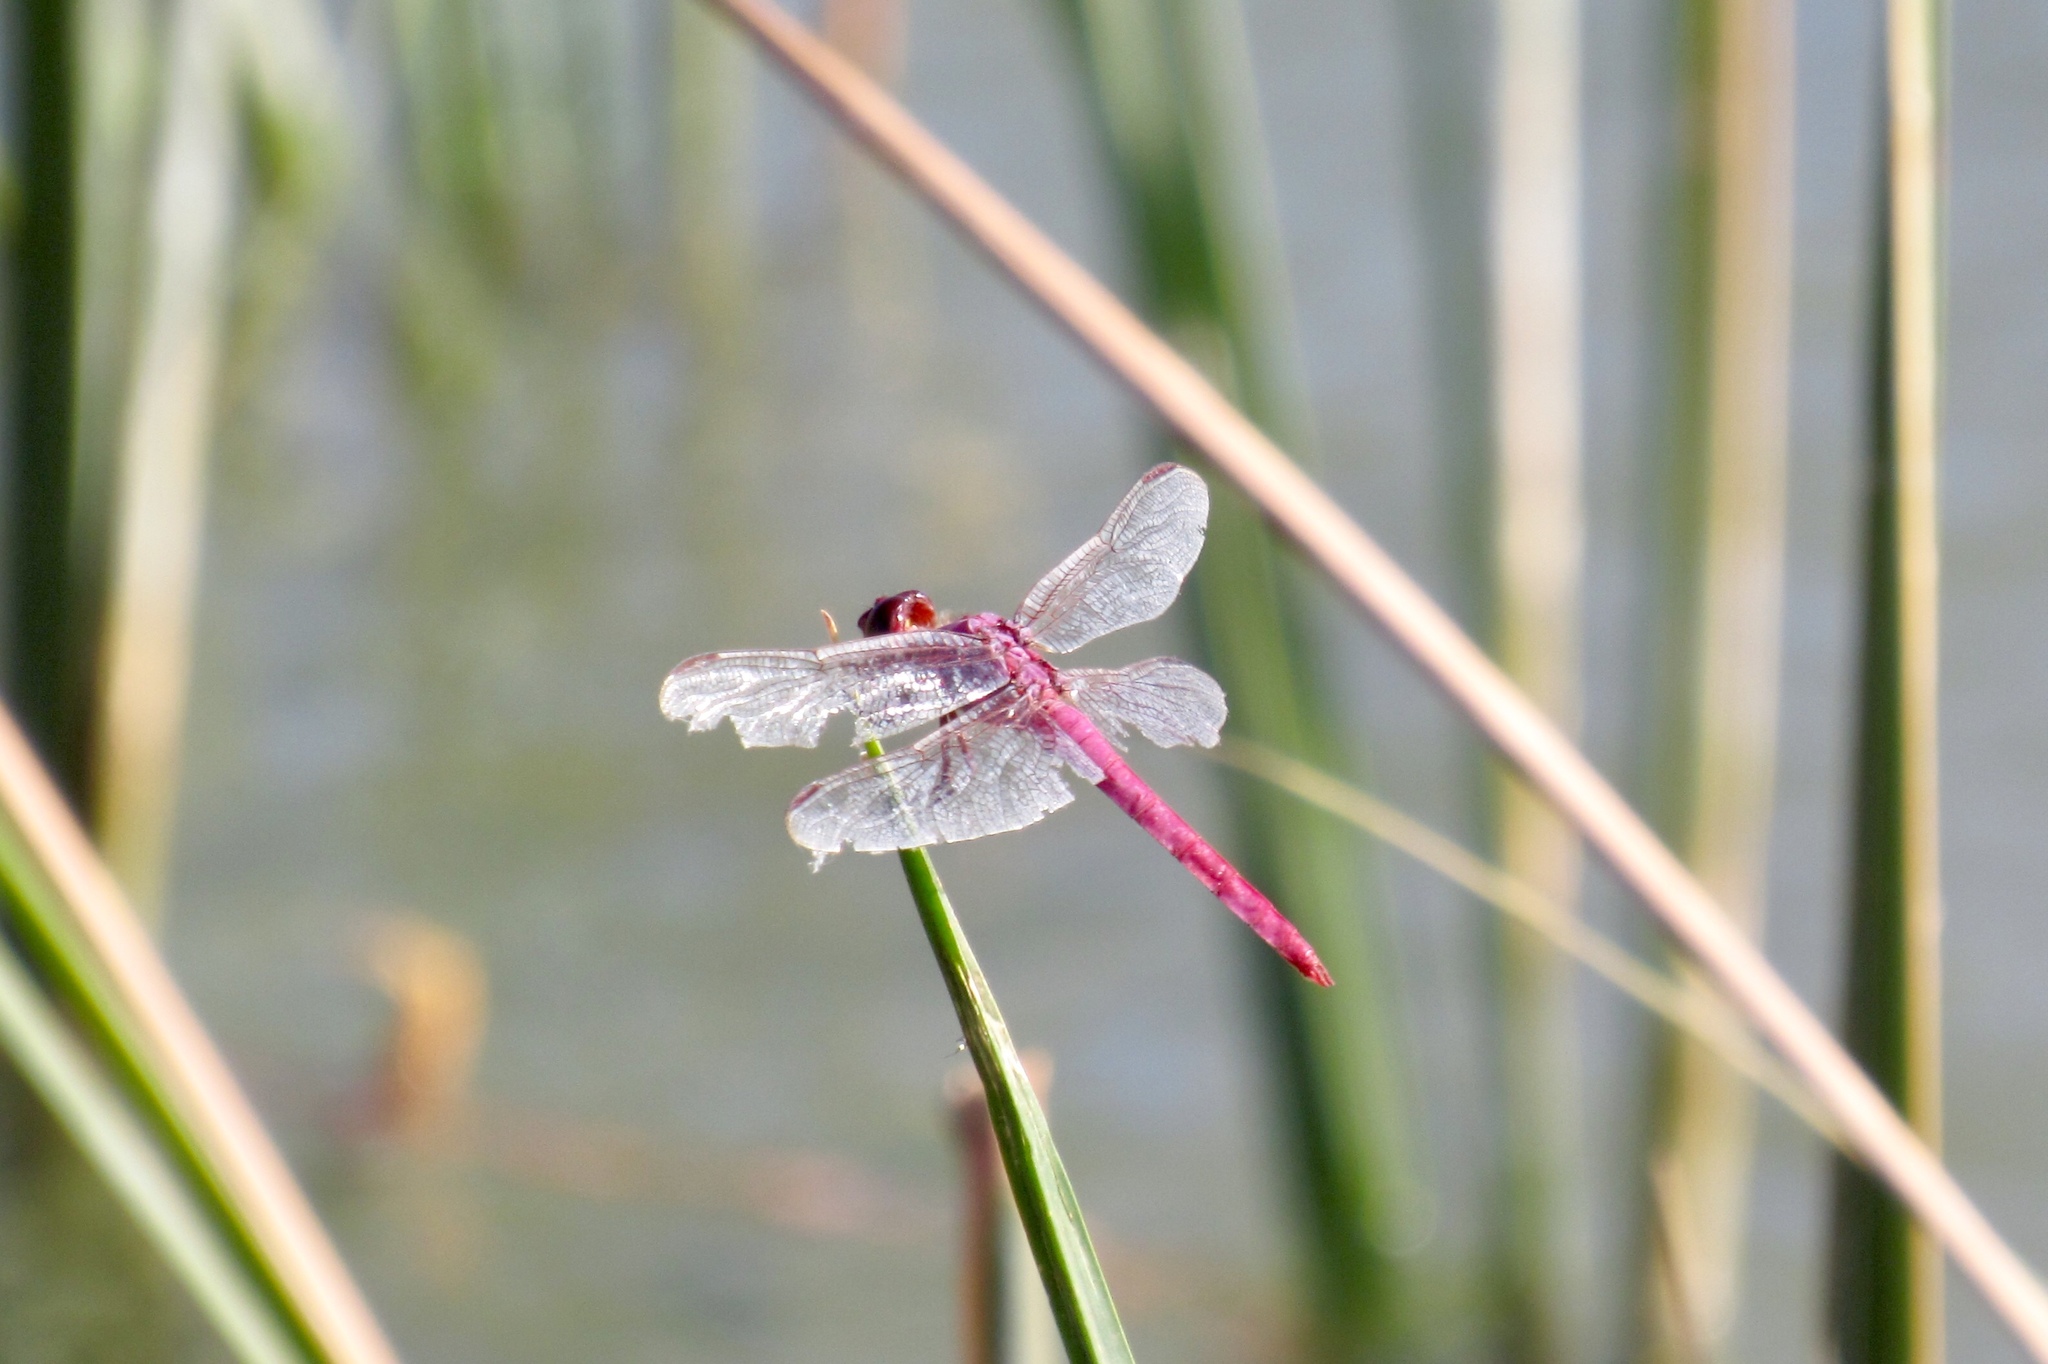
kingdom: Animalia
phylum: Arthropoda
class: Insecta
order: Odonata
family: Libellulidae
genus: Orthemis
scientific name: Orthemis ferruginea
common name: Roseate skimmer
